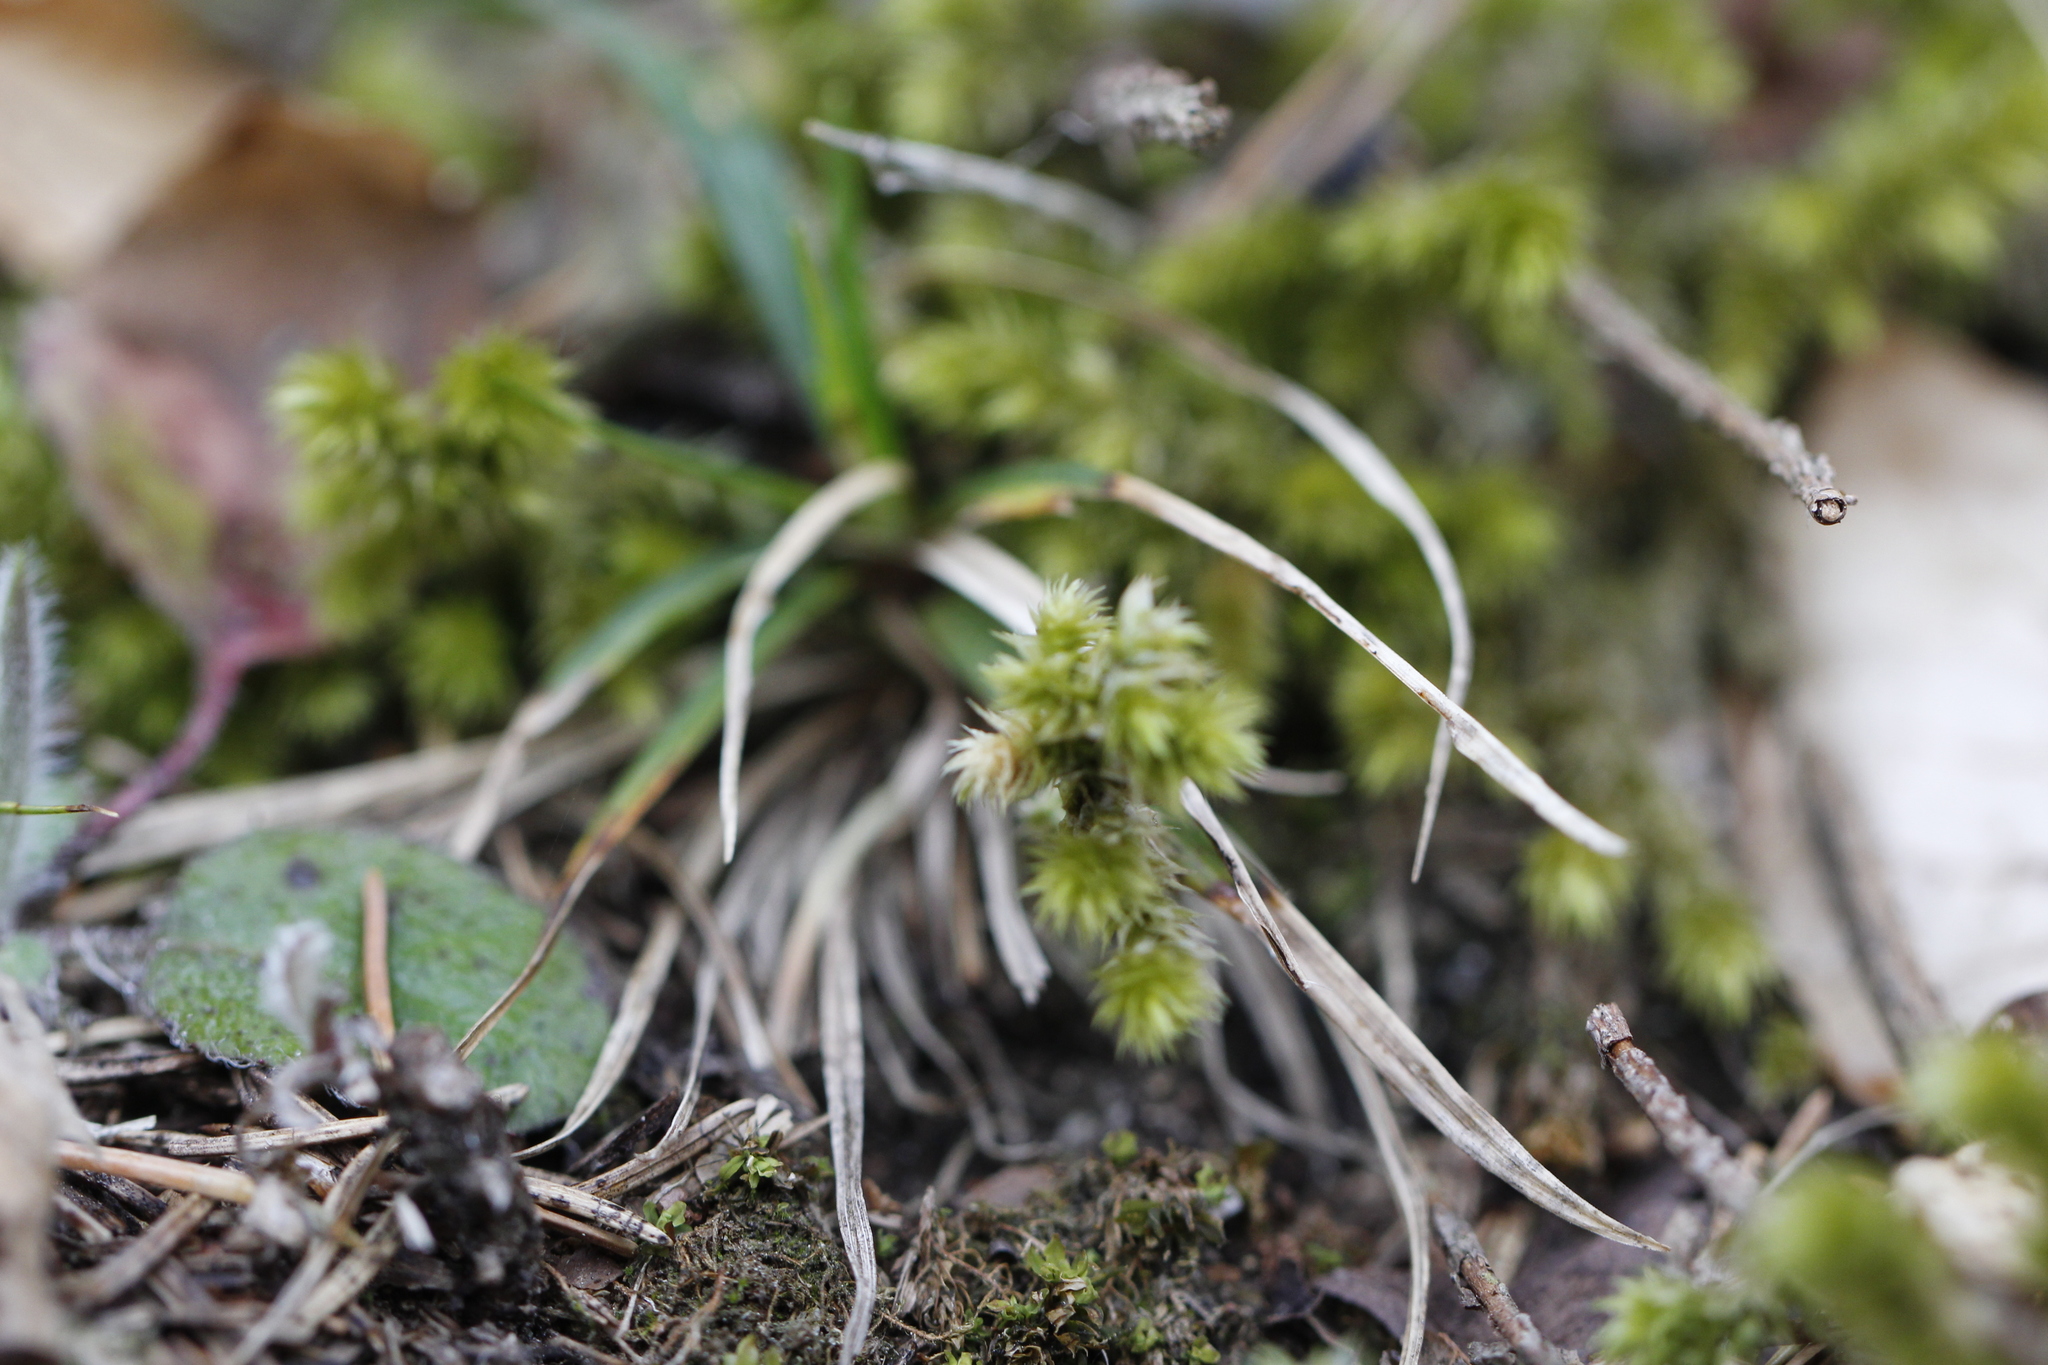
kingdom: Plantae
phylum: Bryophyta
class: Bryopsida
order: Hypnales
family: Hylocomiaceae
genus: Hylocomiadelphus
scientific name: Hylocomiadelphus triquetrus
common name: Rough goose neck moss
